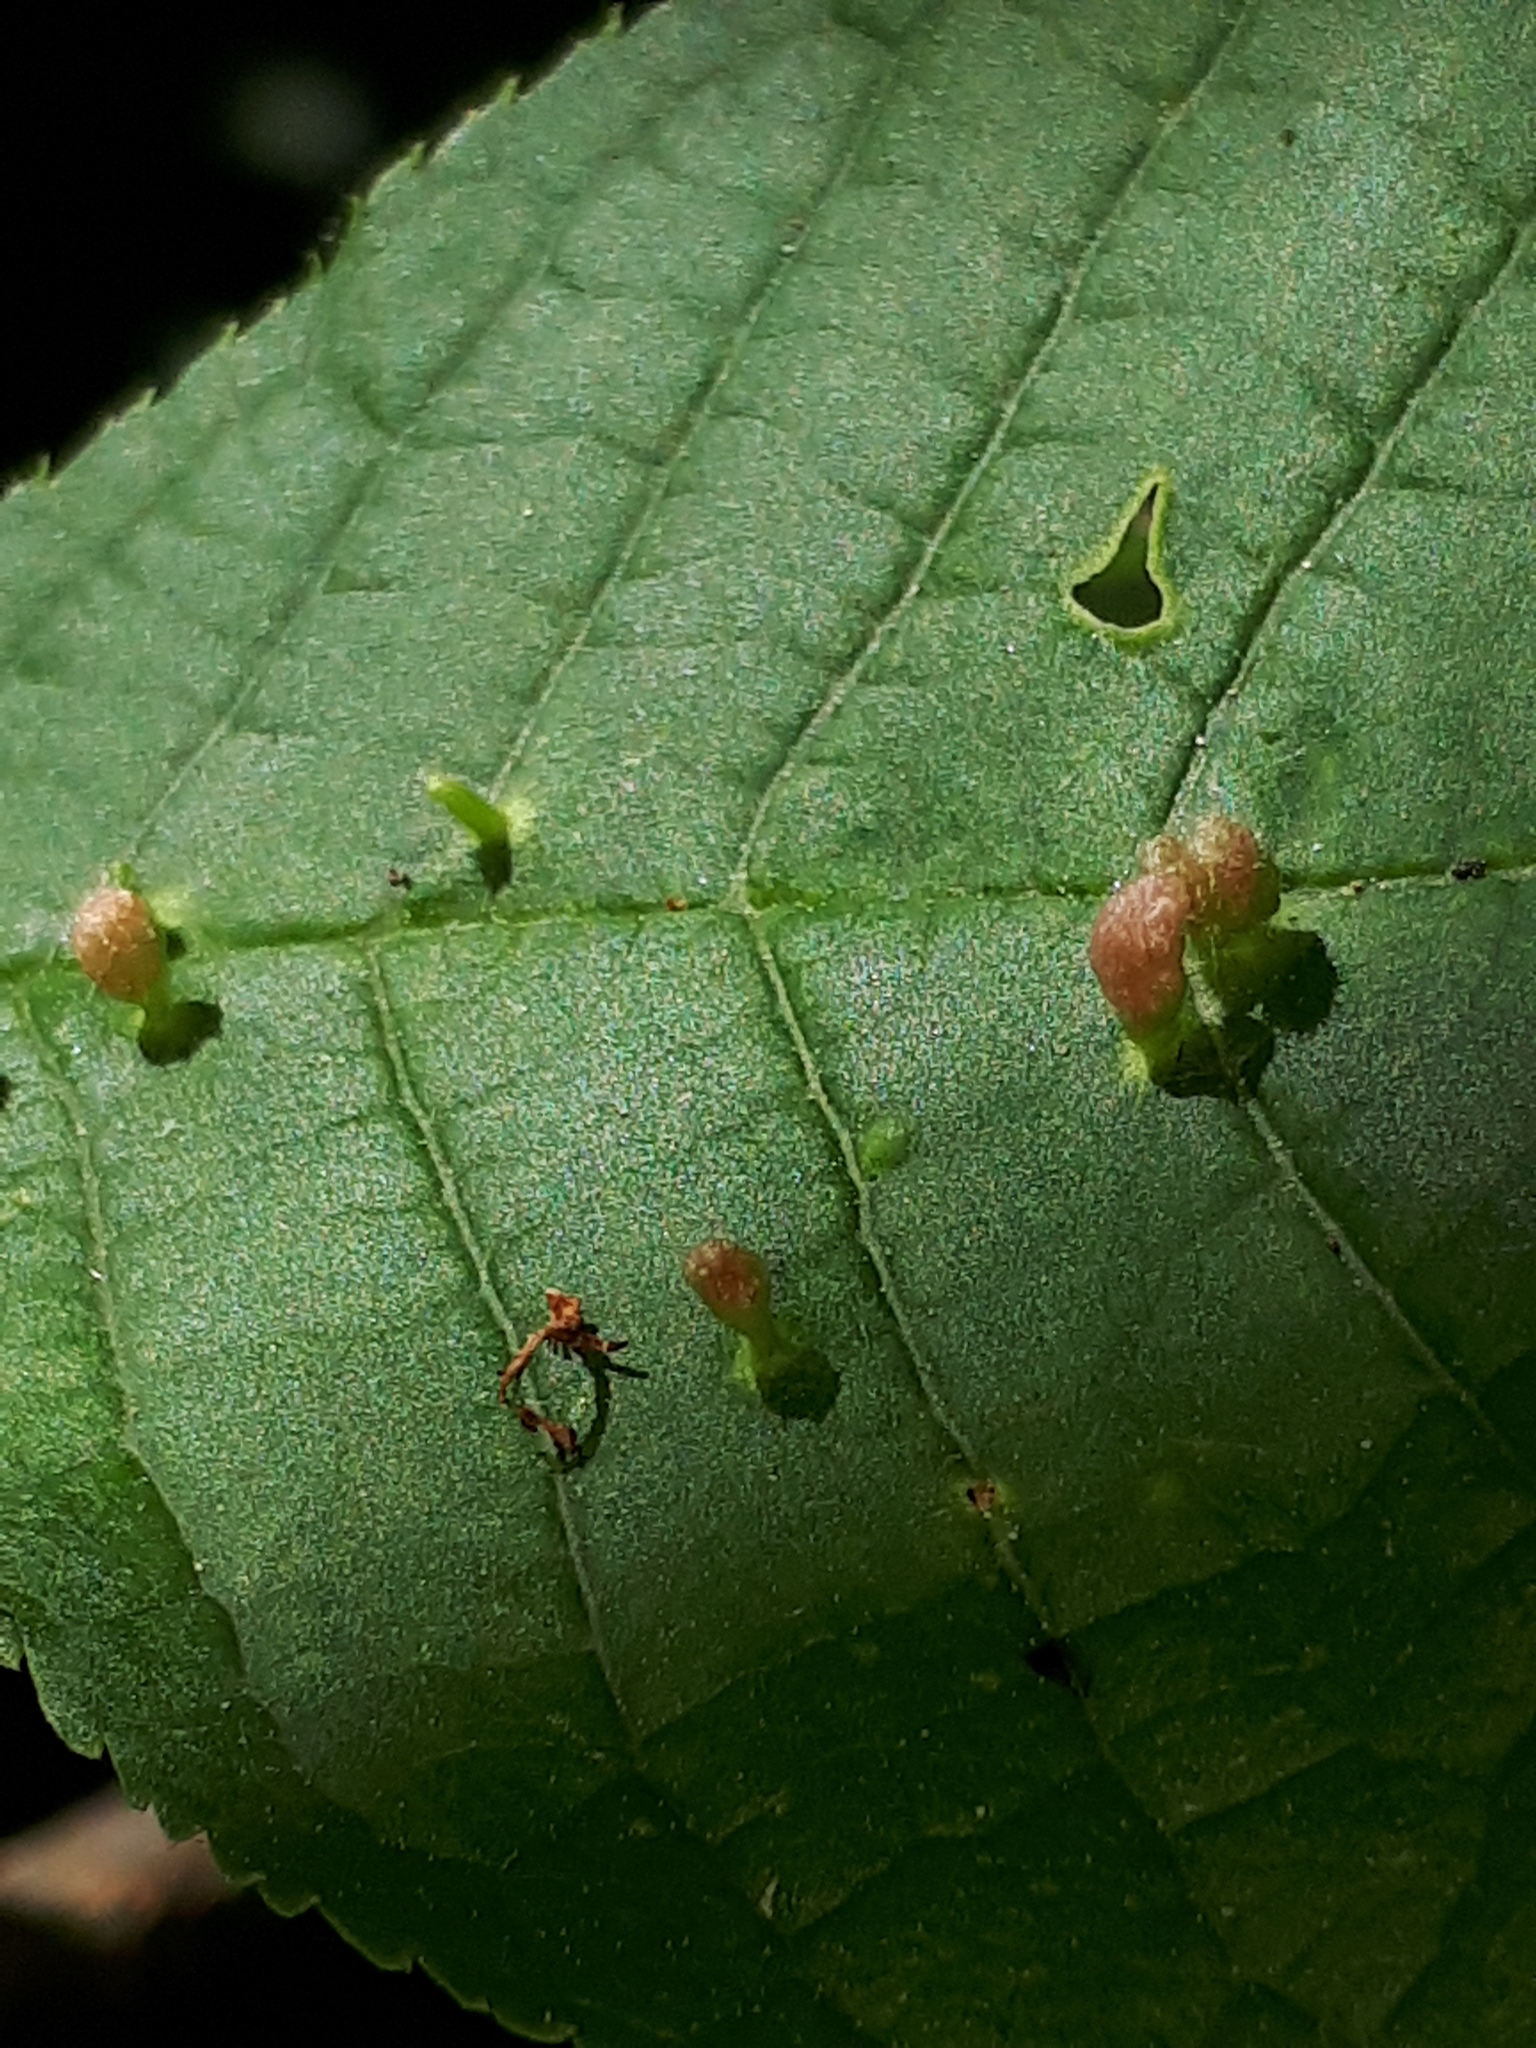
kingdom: Animalia
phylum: Arthropoda
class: Arachnida
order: Trombidiformes
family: Eriophyidae
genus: Phyllocoptes
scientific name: Phyllocoptes eupadi
